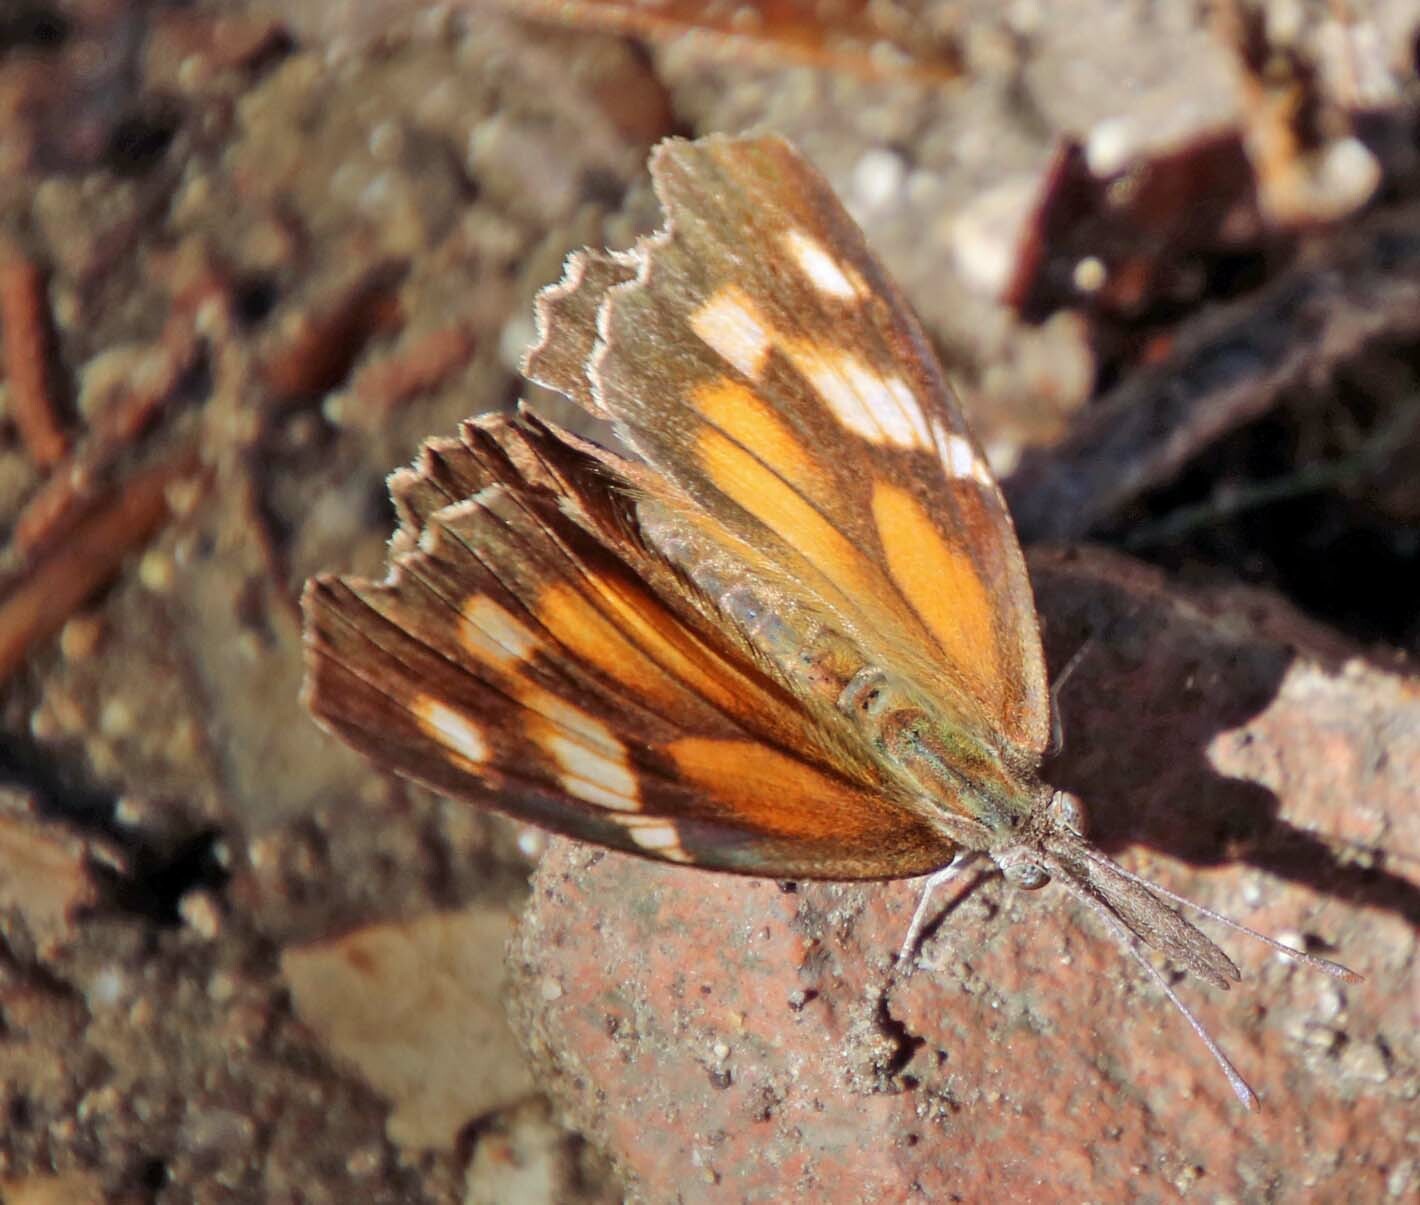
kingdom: Animalia
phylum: Arthropoda
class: Insecta
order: Lepidoptera
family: Nymphalidae
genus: Libytheana
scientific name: Libytheana carinenta
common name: American snout
